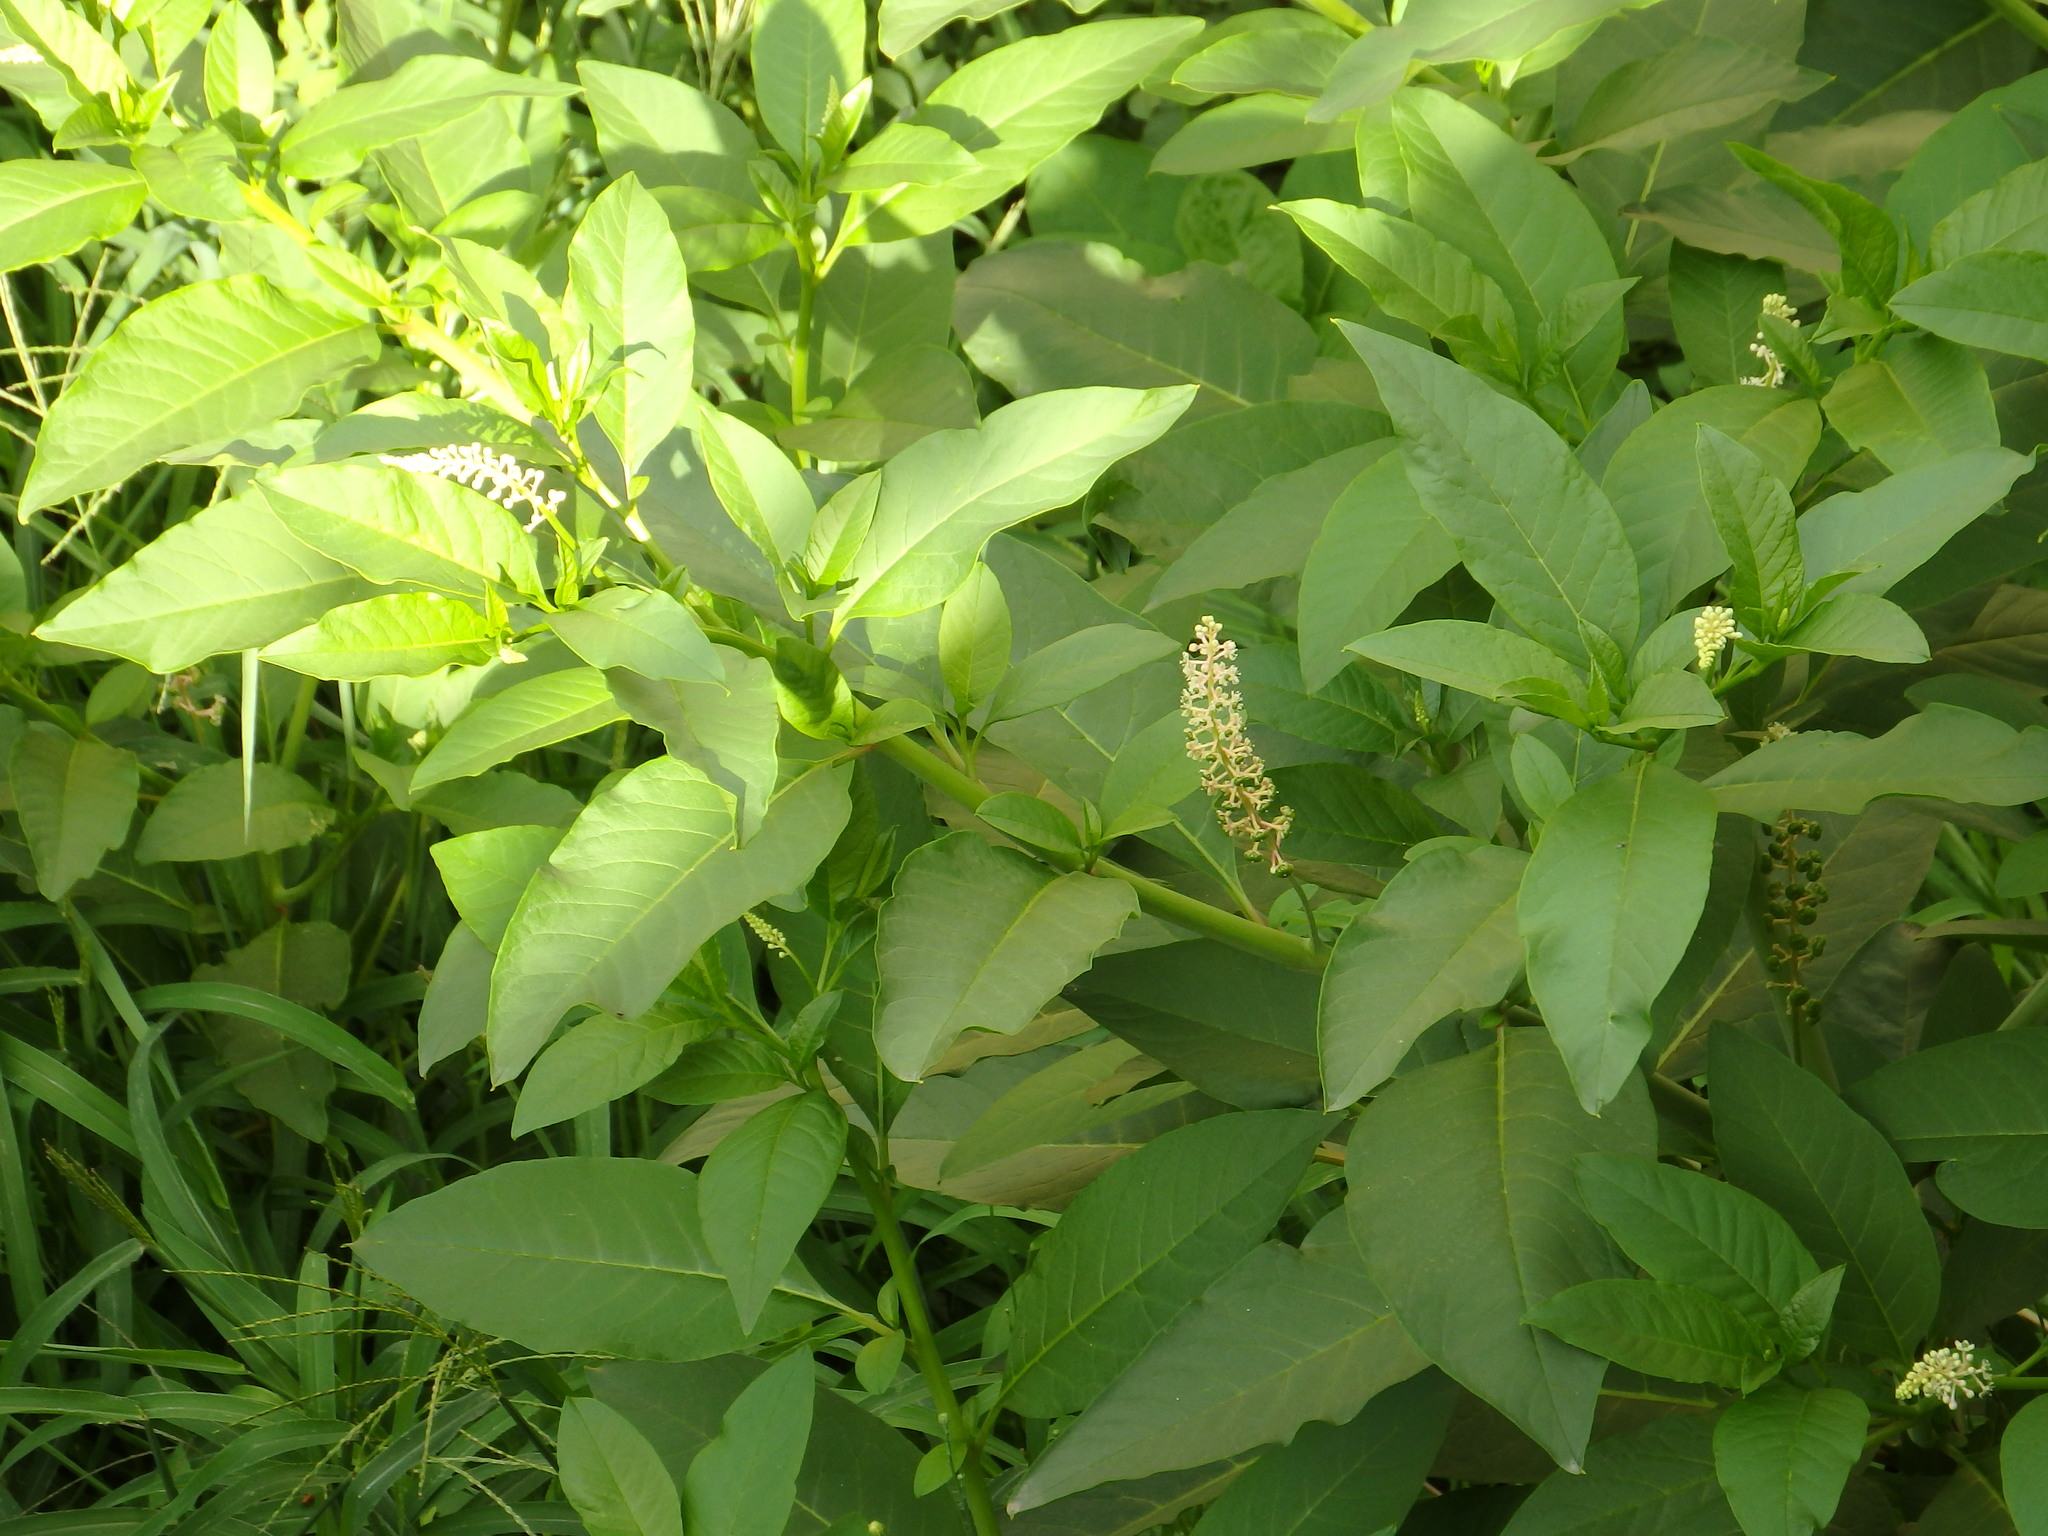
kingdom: Plantae
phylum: Tracheophyta
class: Magnoliopsida
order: Caryophyllales
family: Phytolaccaceae
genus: Phytolacca
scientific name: Phytolacca americana
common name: American pokeweed
